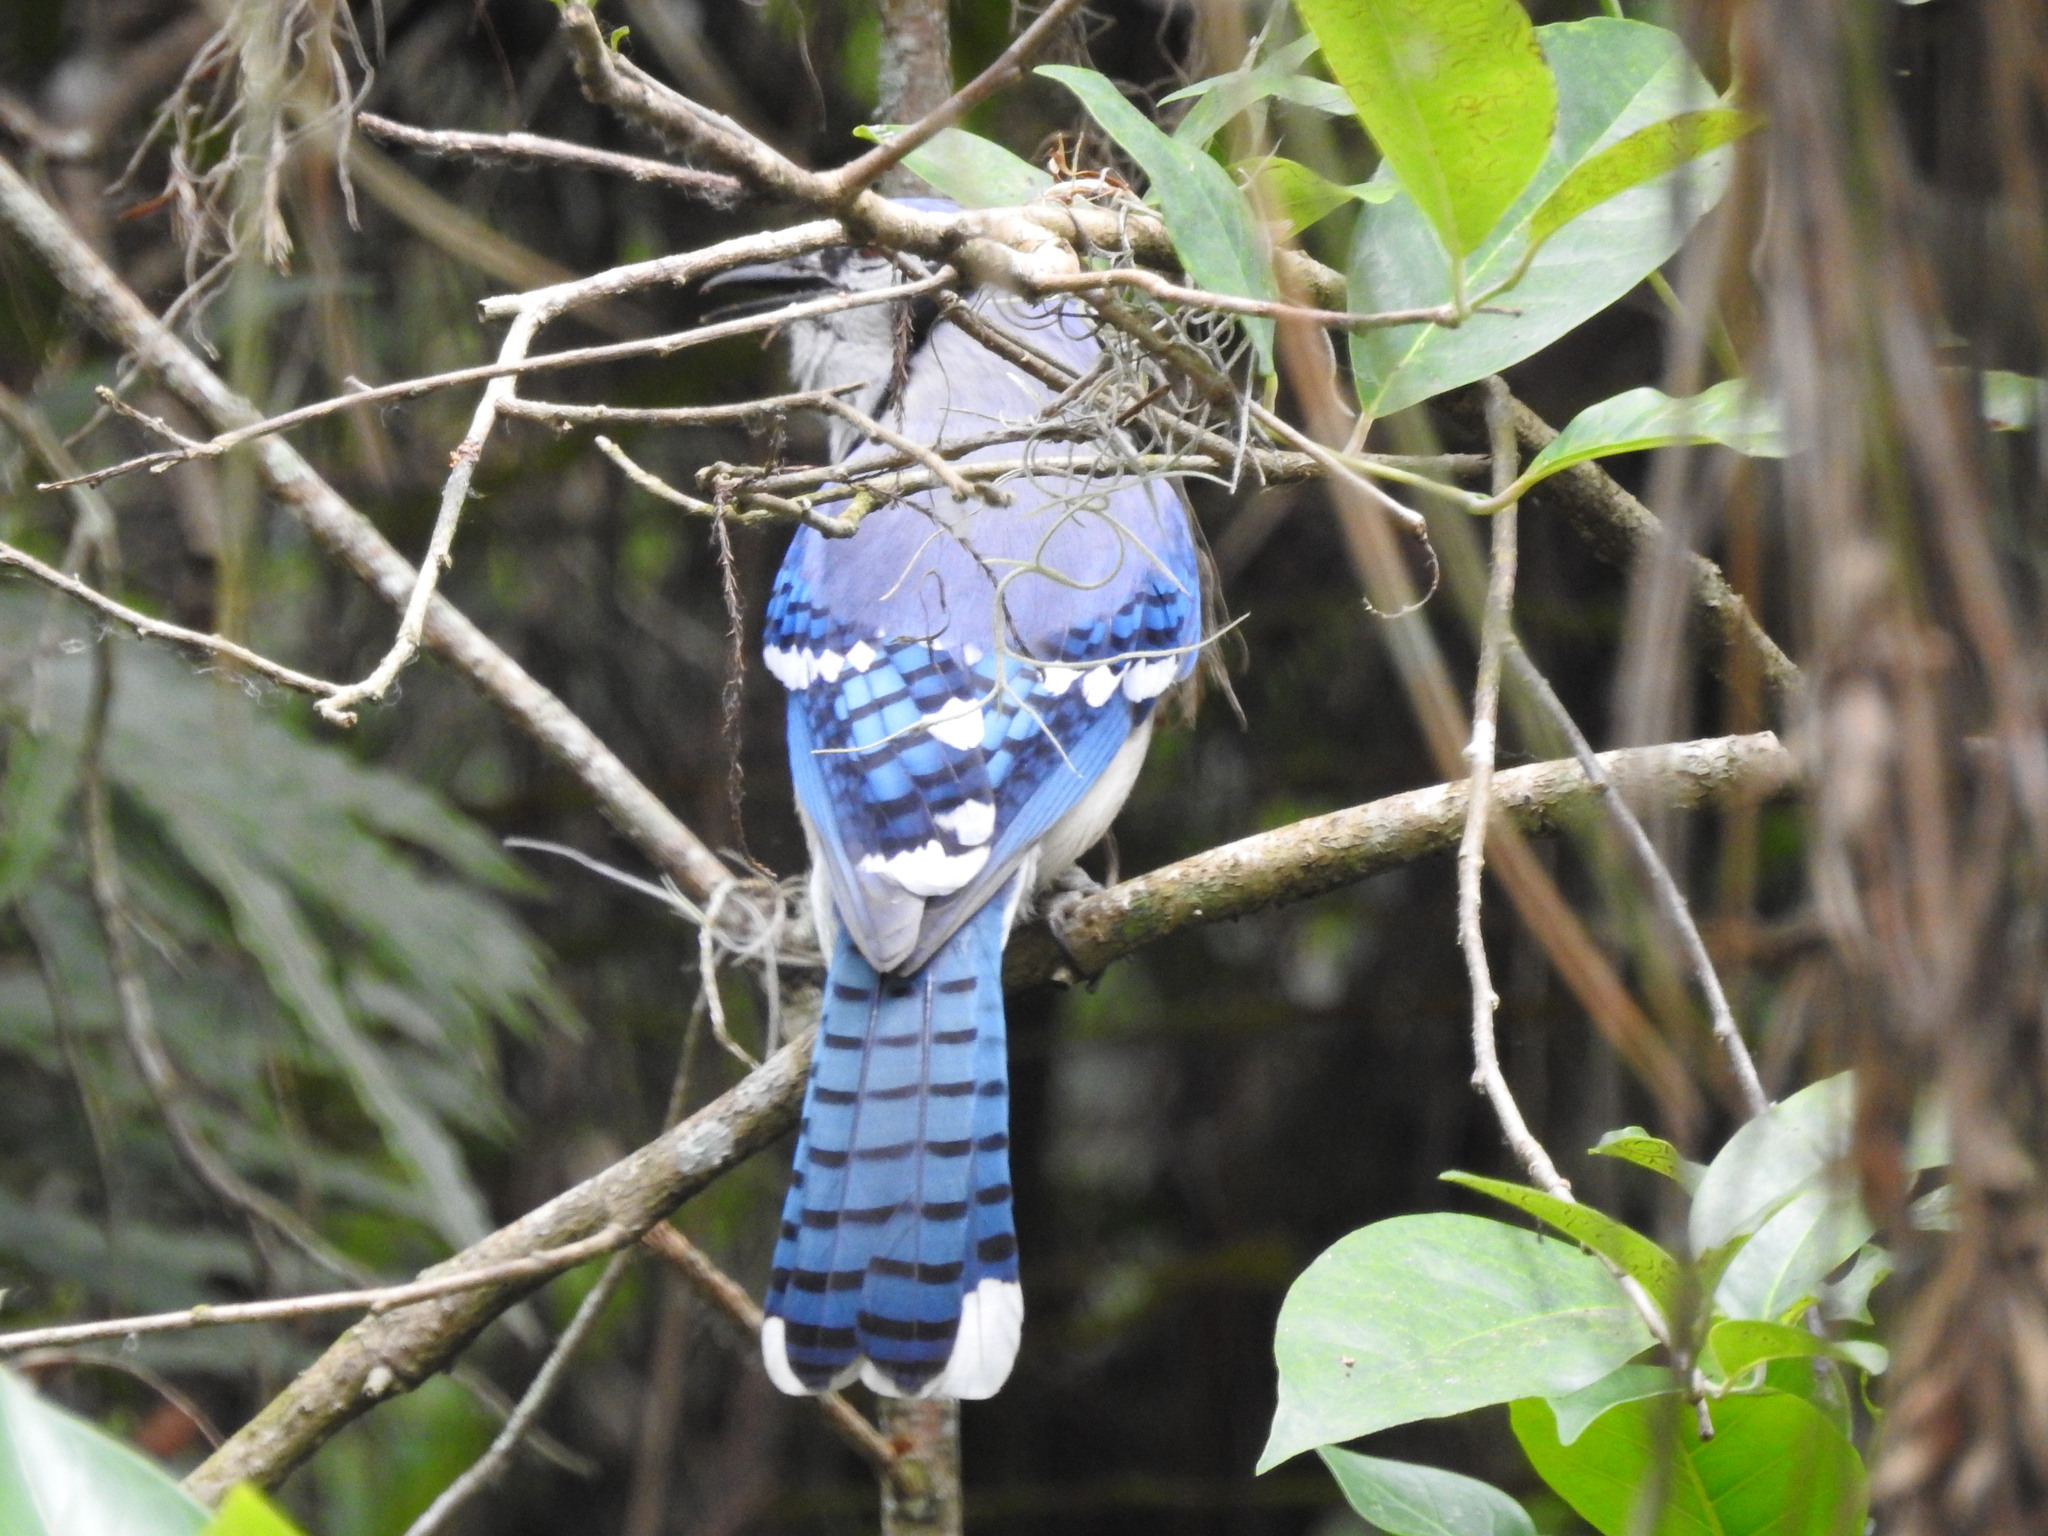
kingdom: Animalia
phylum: Chordata
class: Aves
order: Passeriformes
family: Corvidae
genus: Cyanocitta
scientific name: Cyanocitta cristata
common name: Blue jay
